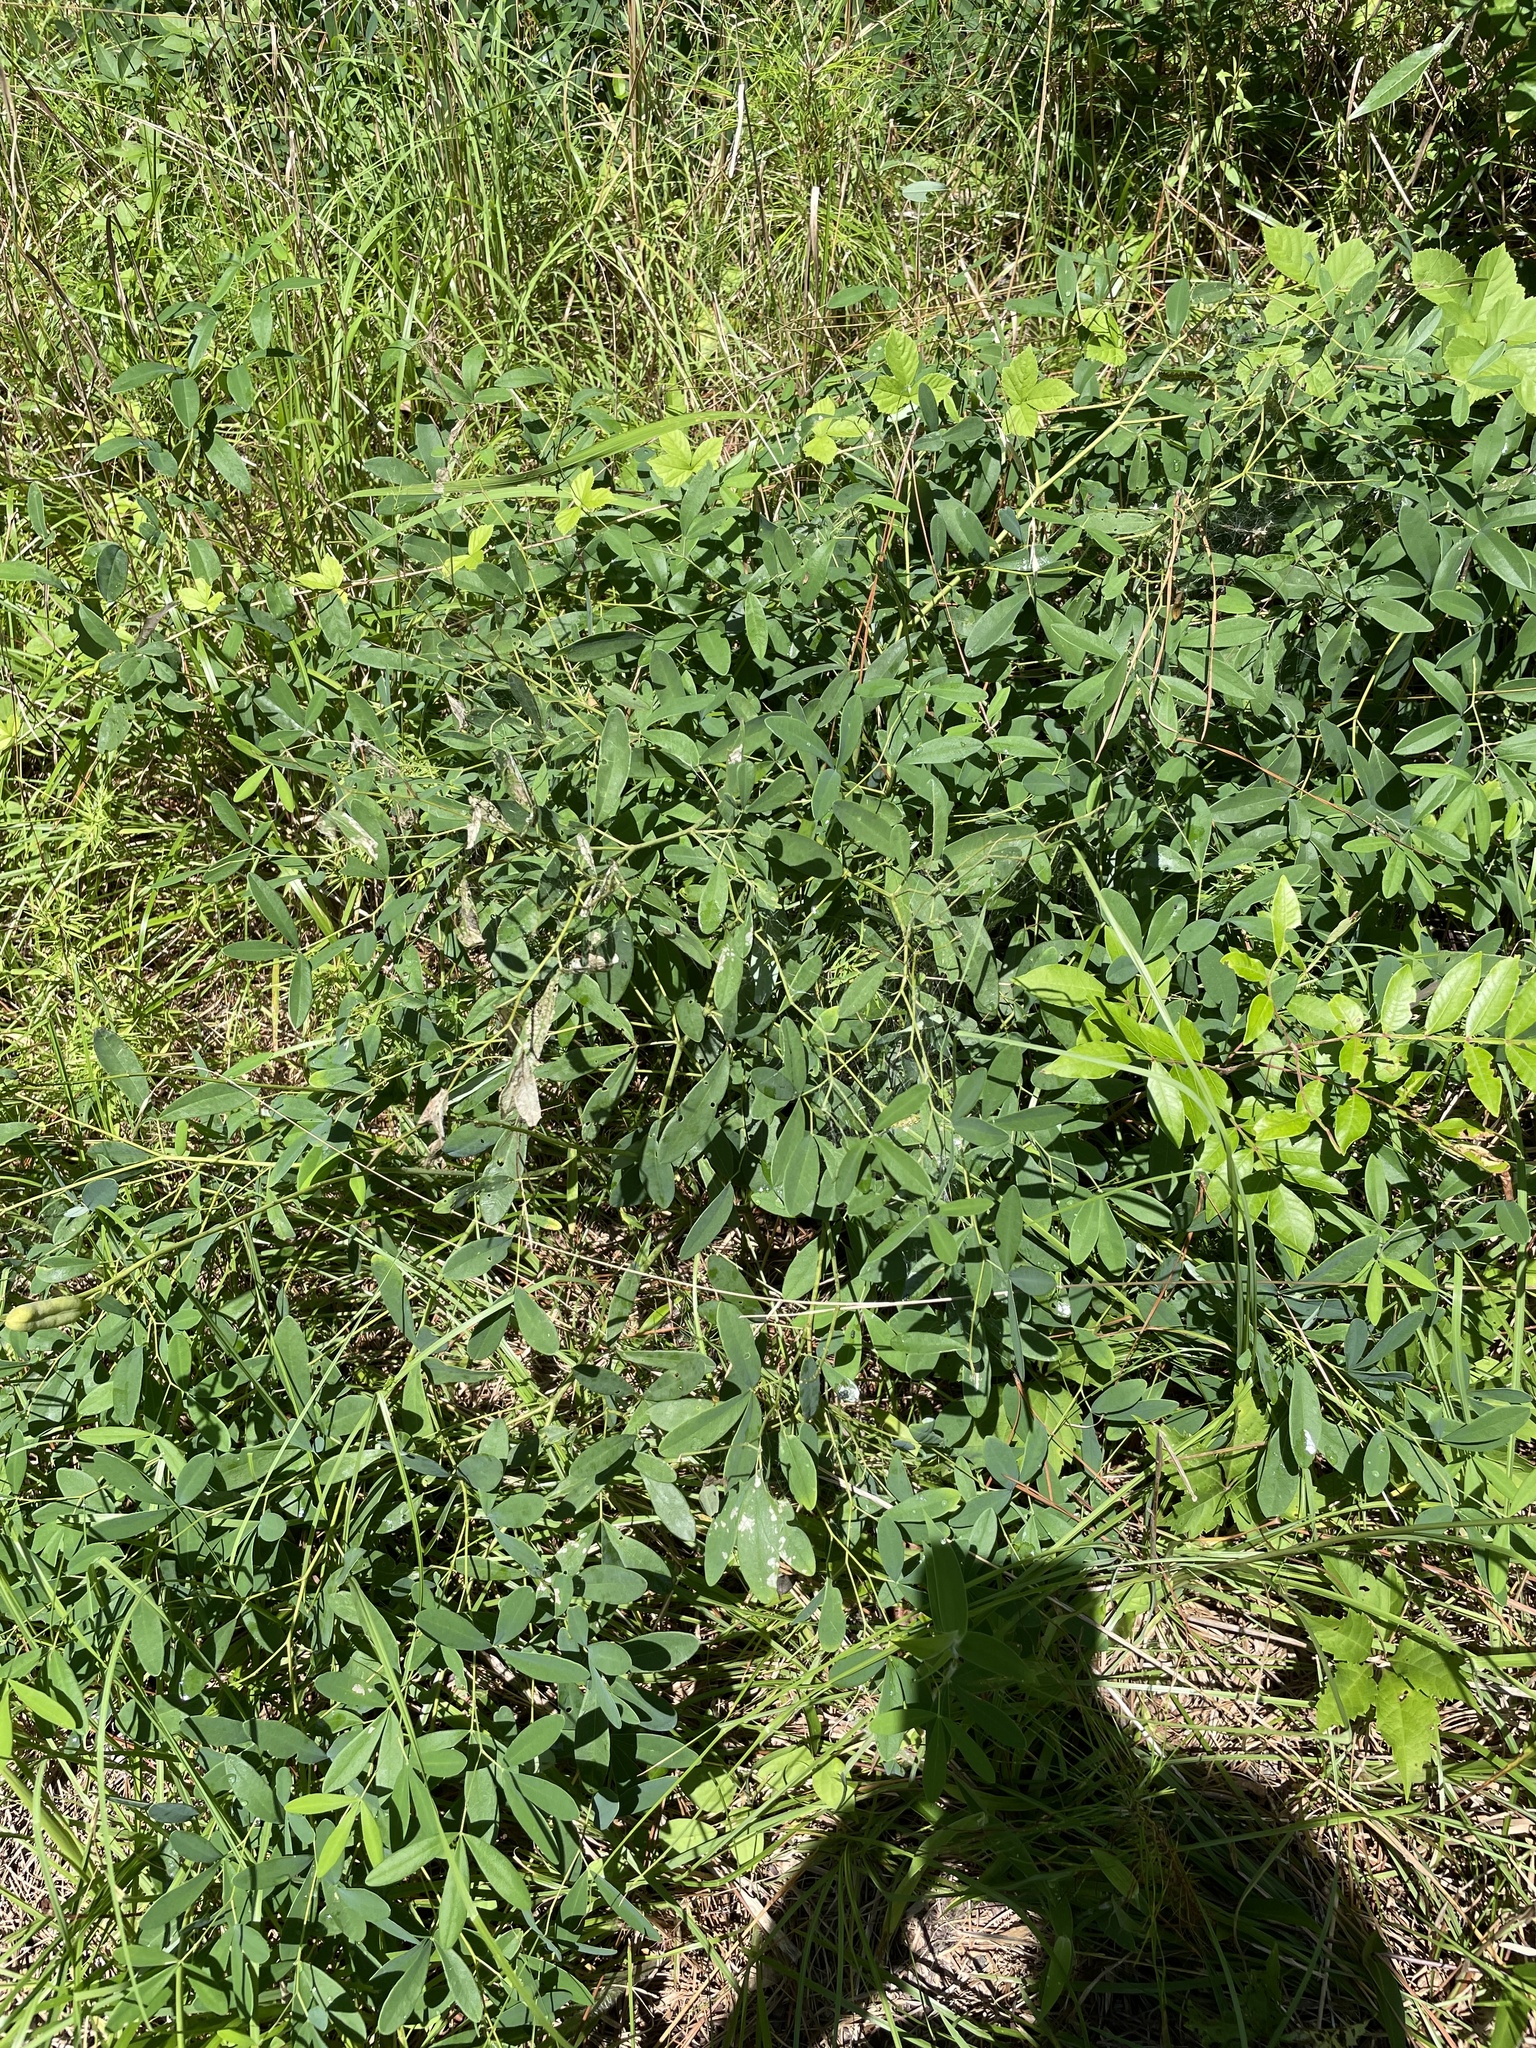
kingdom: Plantae
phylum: Tracheophyta
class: Magnoliopsida
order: Fabales
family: Fabaceae
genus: Baptisia
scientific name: Baptisia albescens
